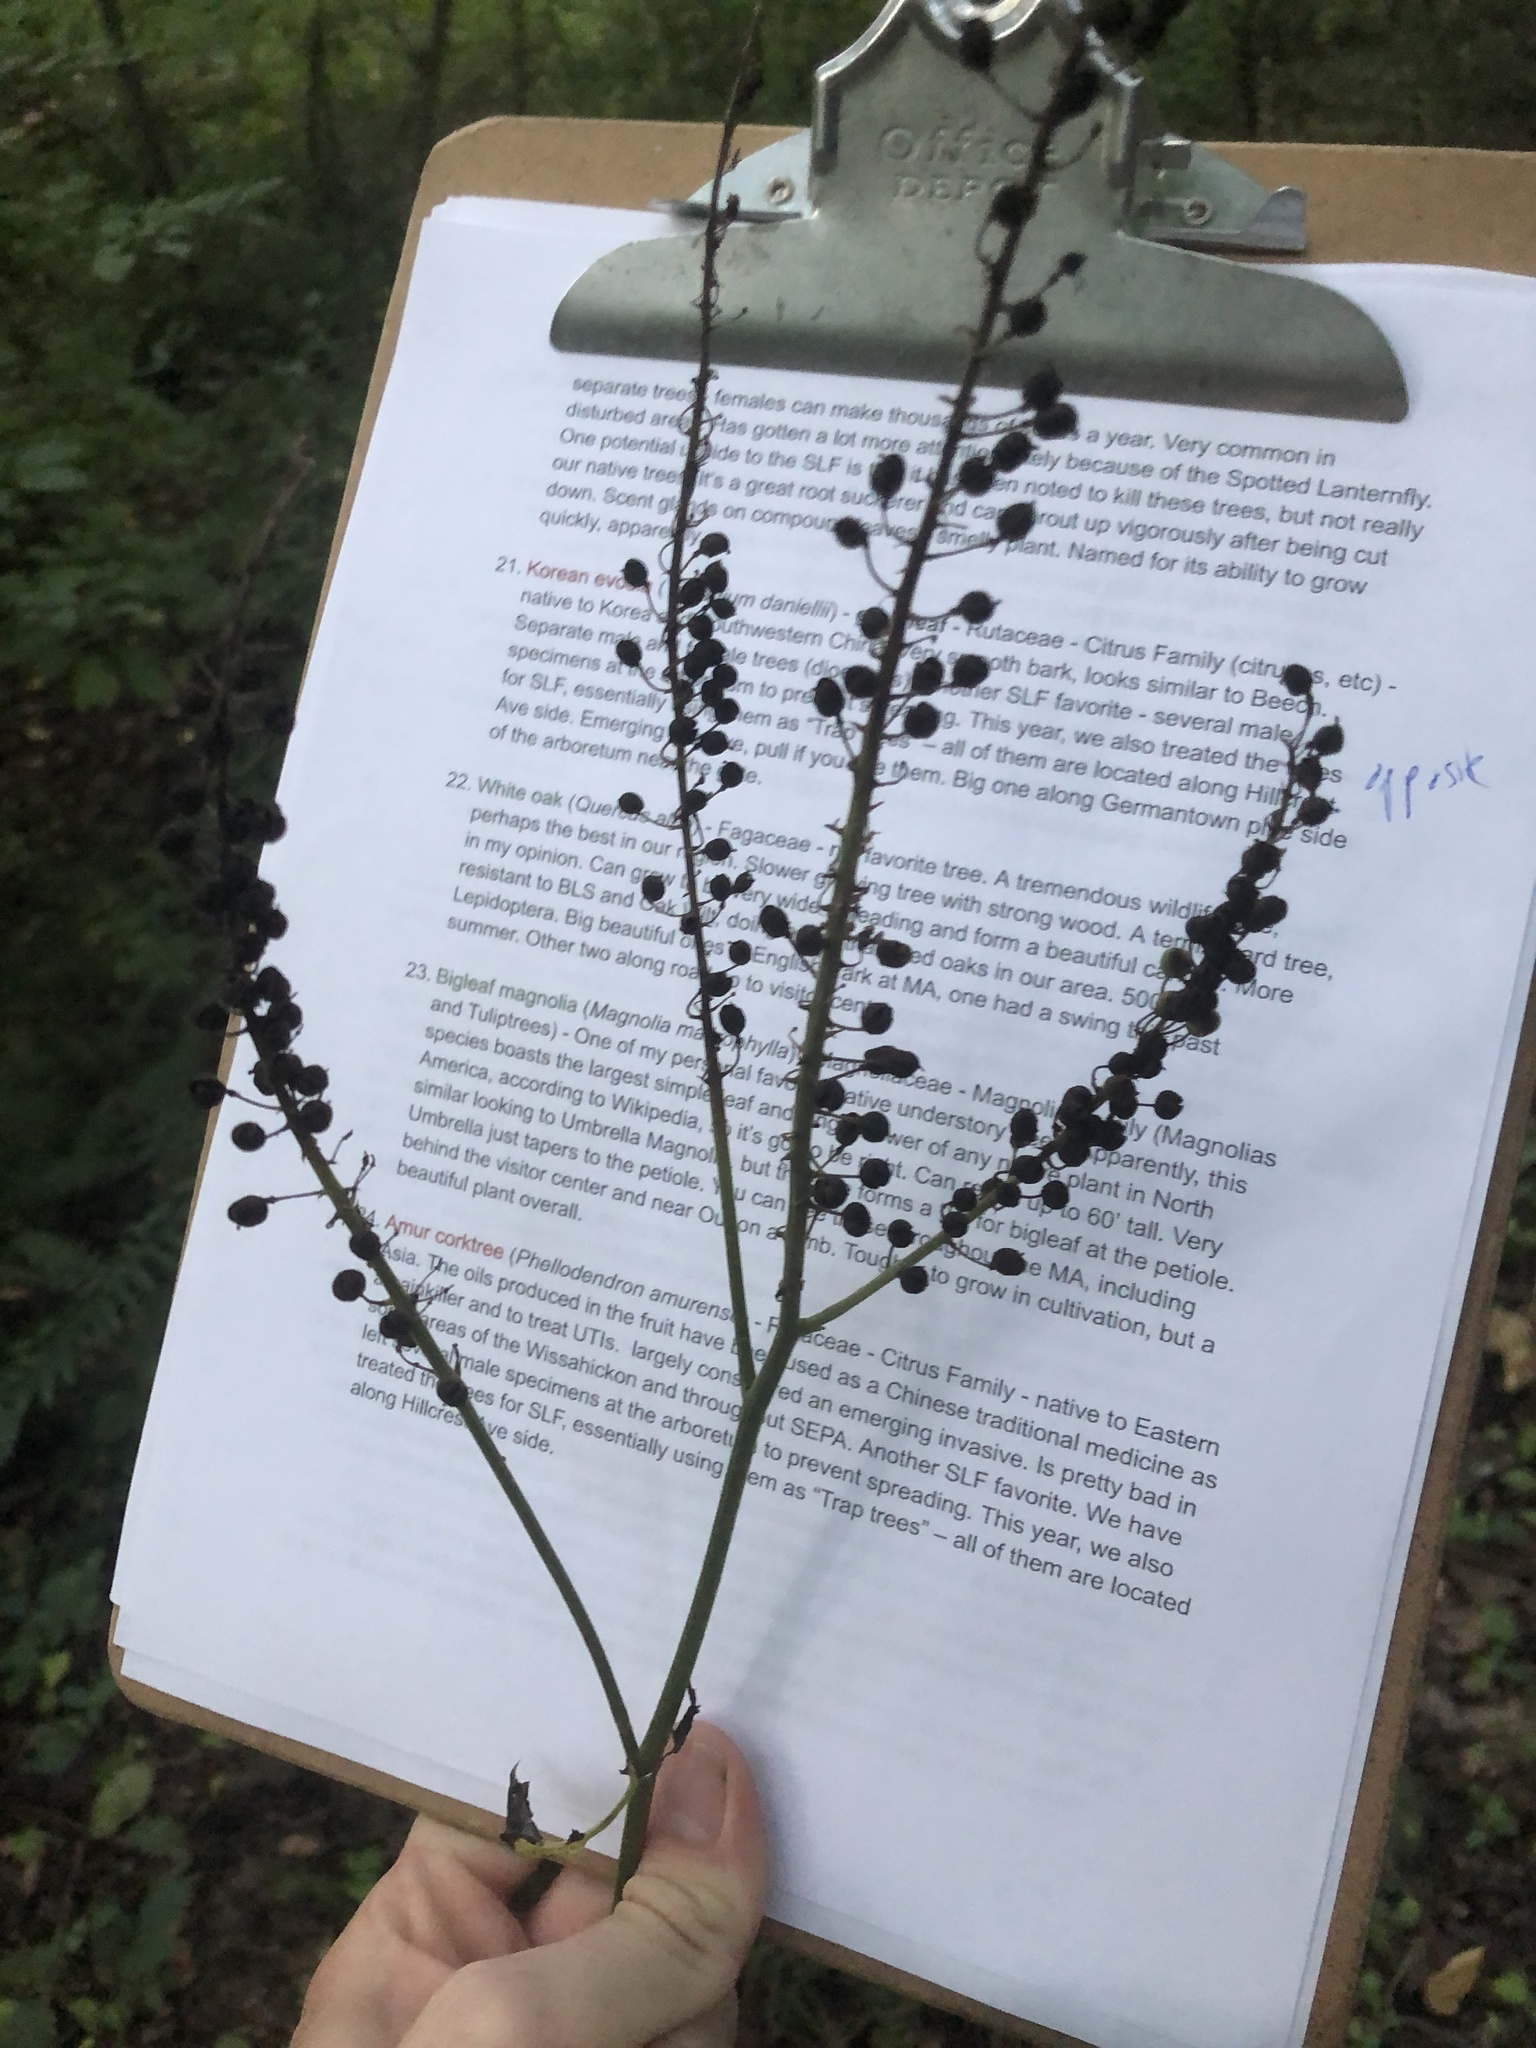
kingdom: Plantae
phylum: Tracheophyta
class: Magnoliopsida
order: Ranunculales
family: Ranunculaceae
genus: Actaea
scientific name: Actaea racemosa
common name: Black cohosh
